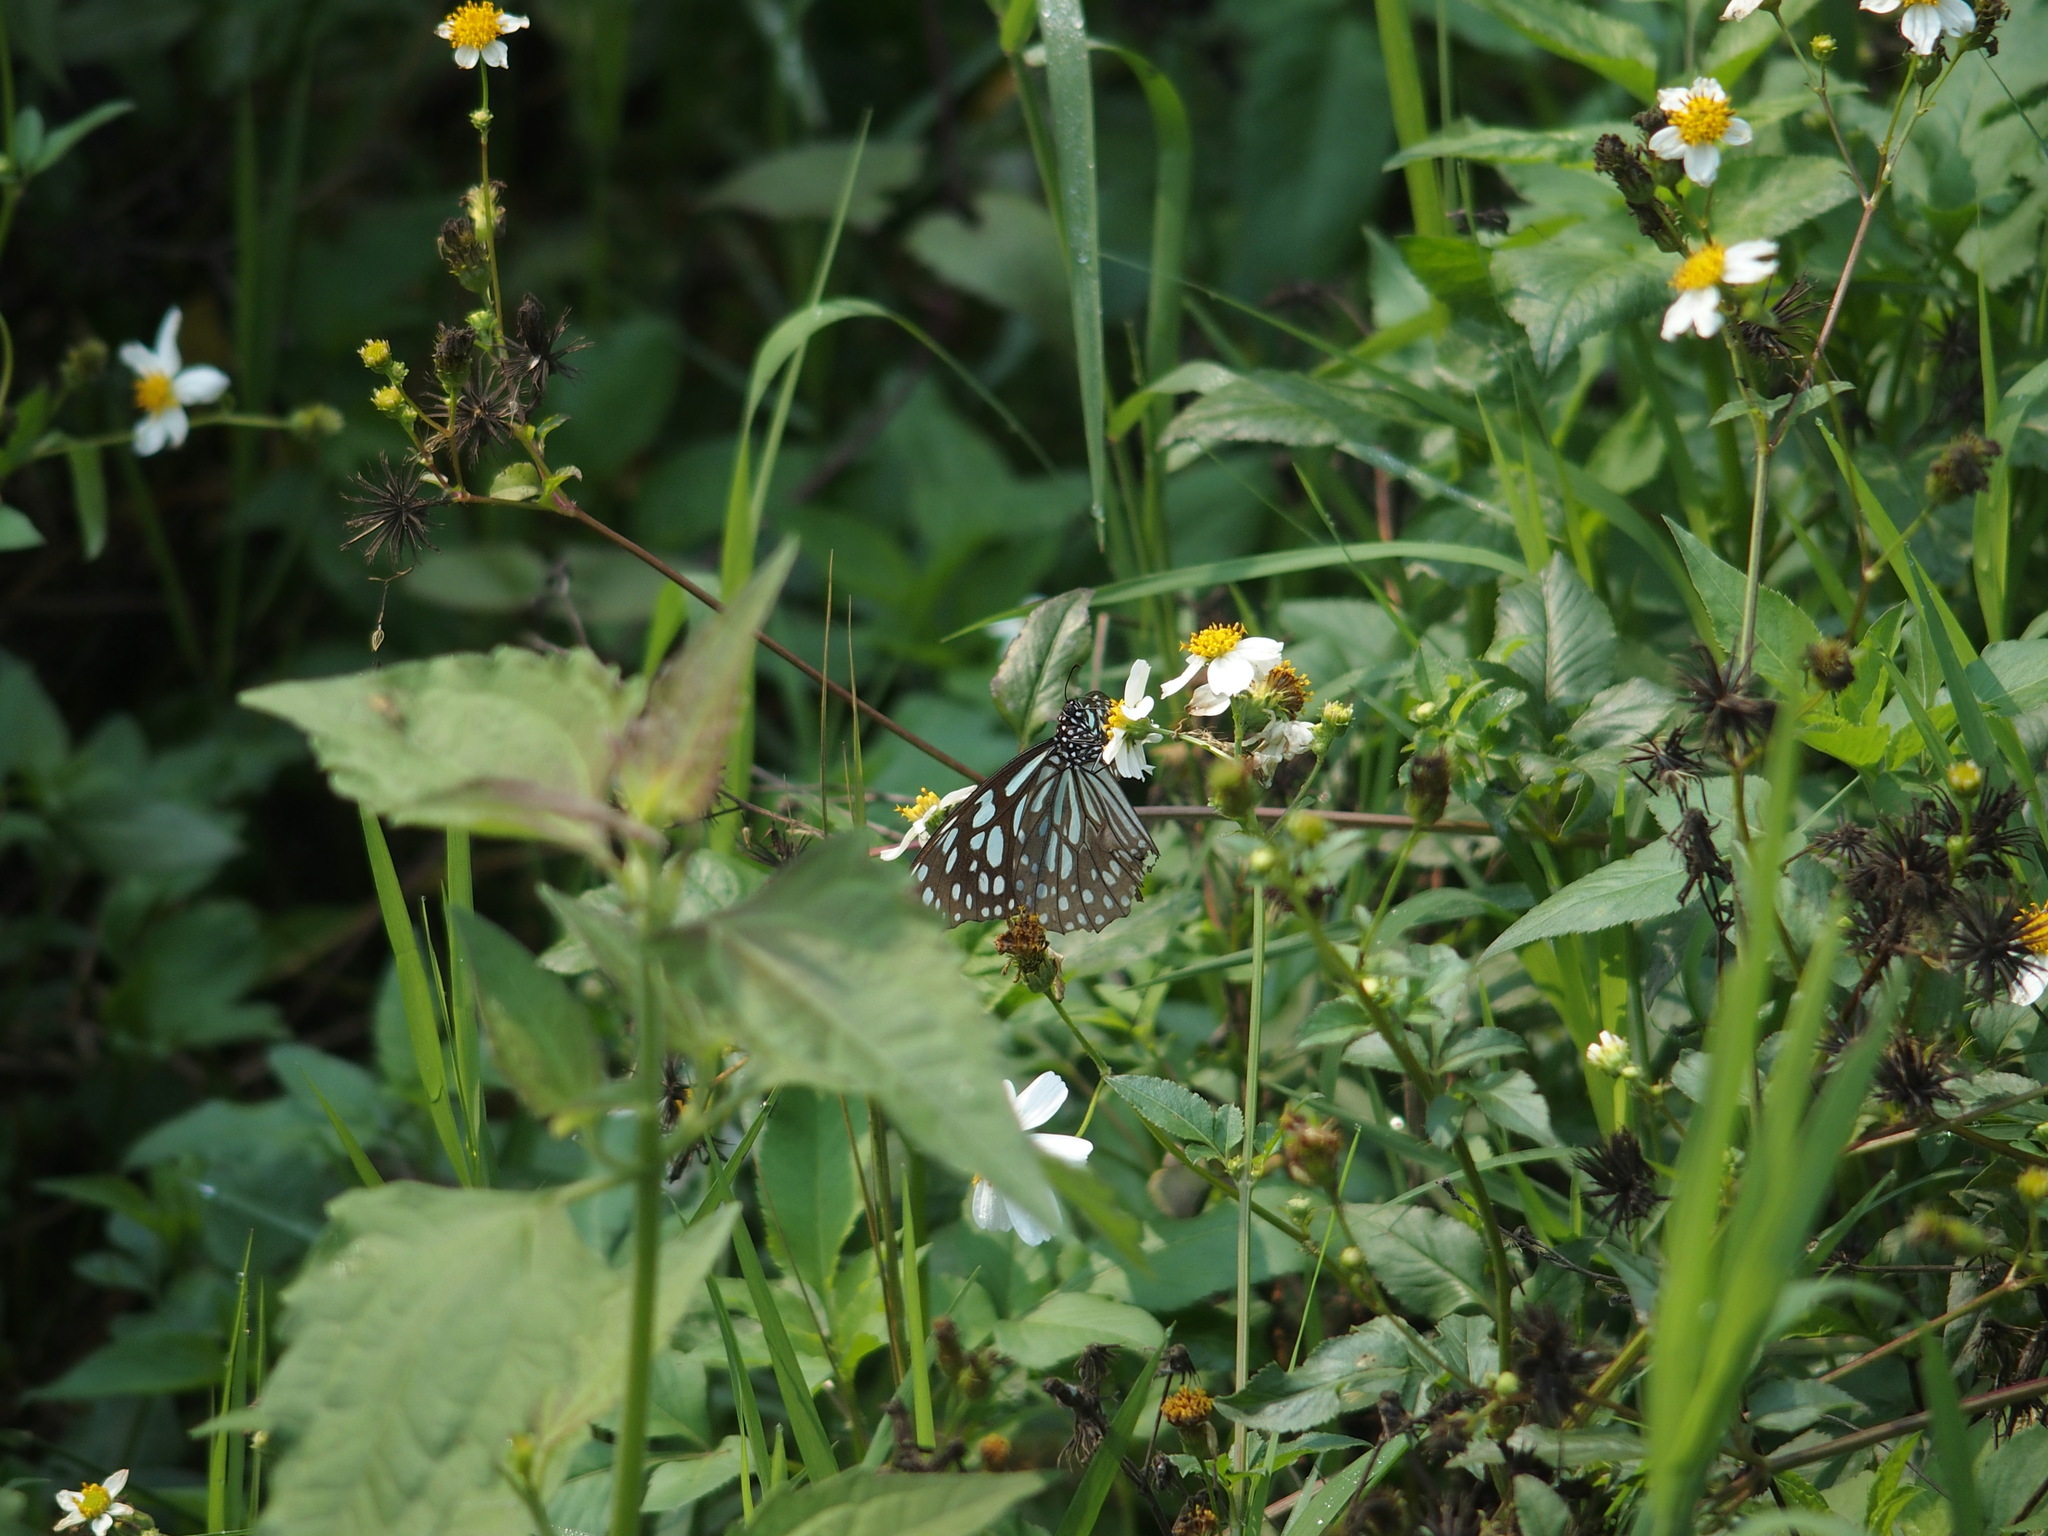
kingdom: Animalia
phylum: Arthropoda
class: Insecta
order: Lepidoptera
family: Nymphalidae
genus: Tirumala
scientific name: Tirumala limniace
